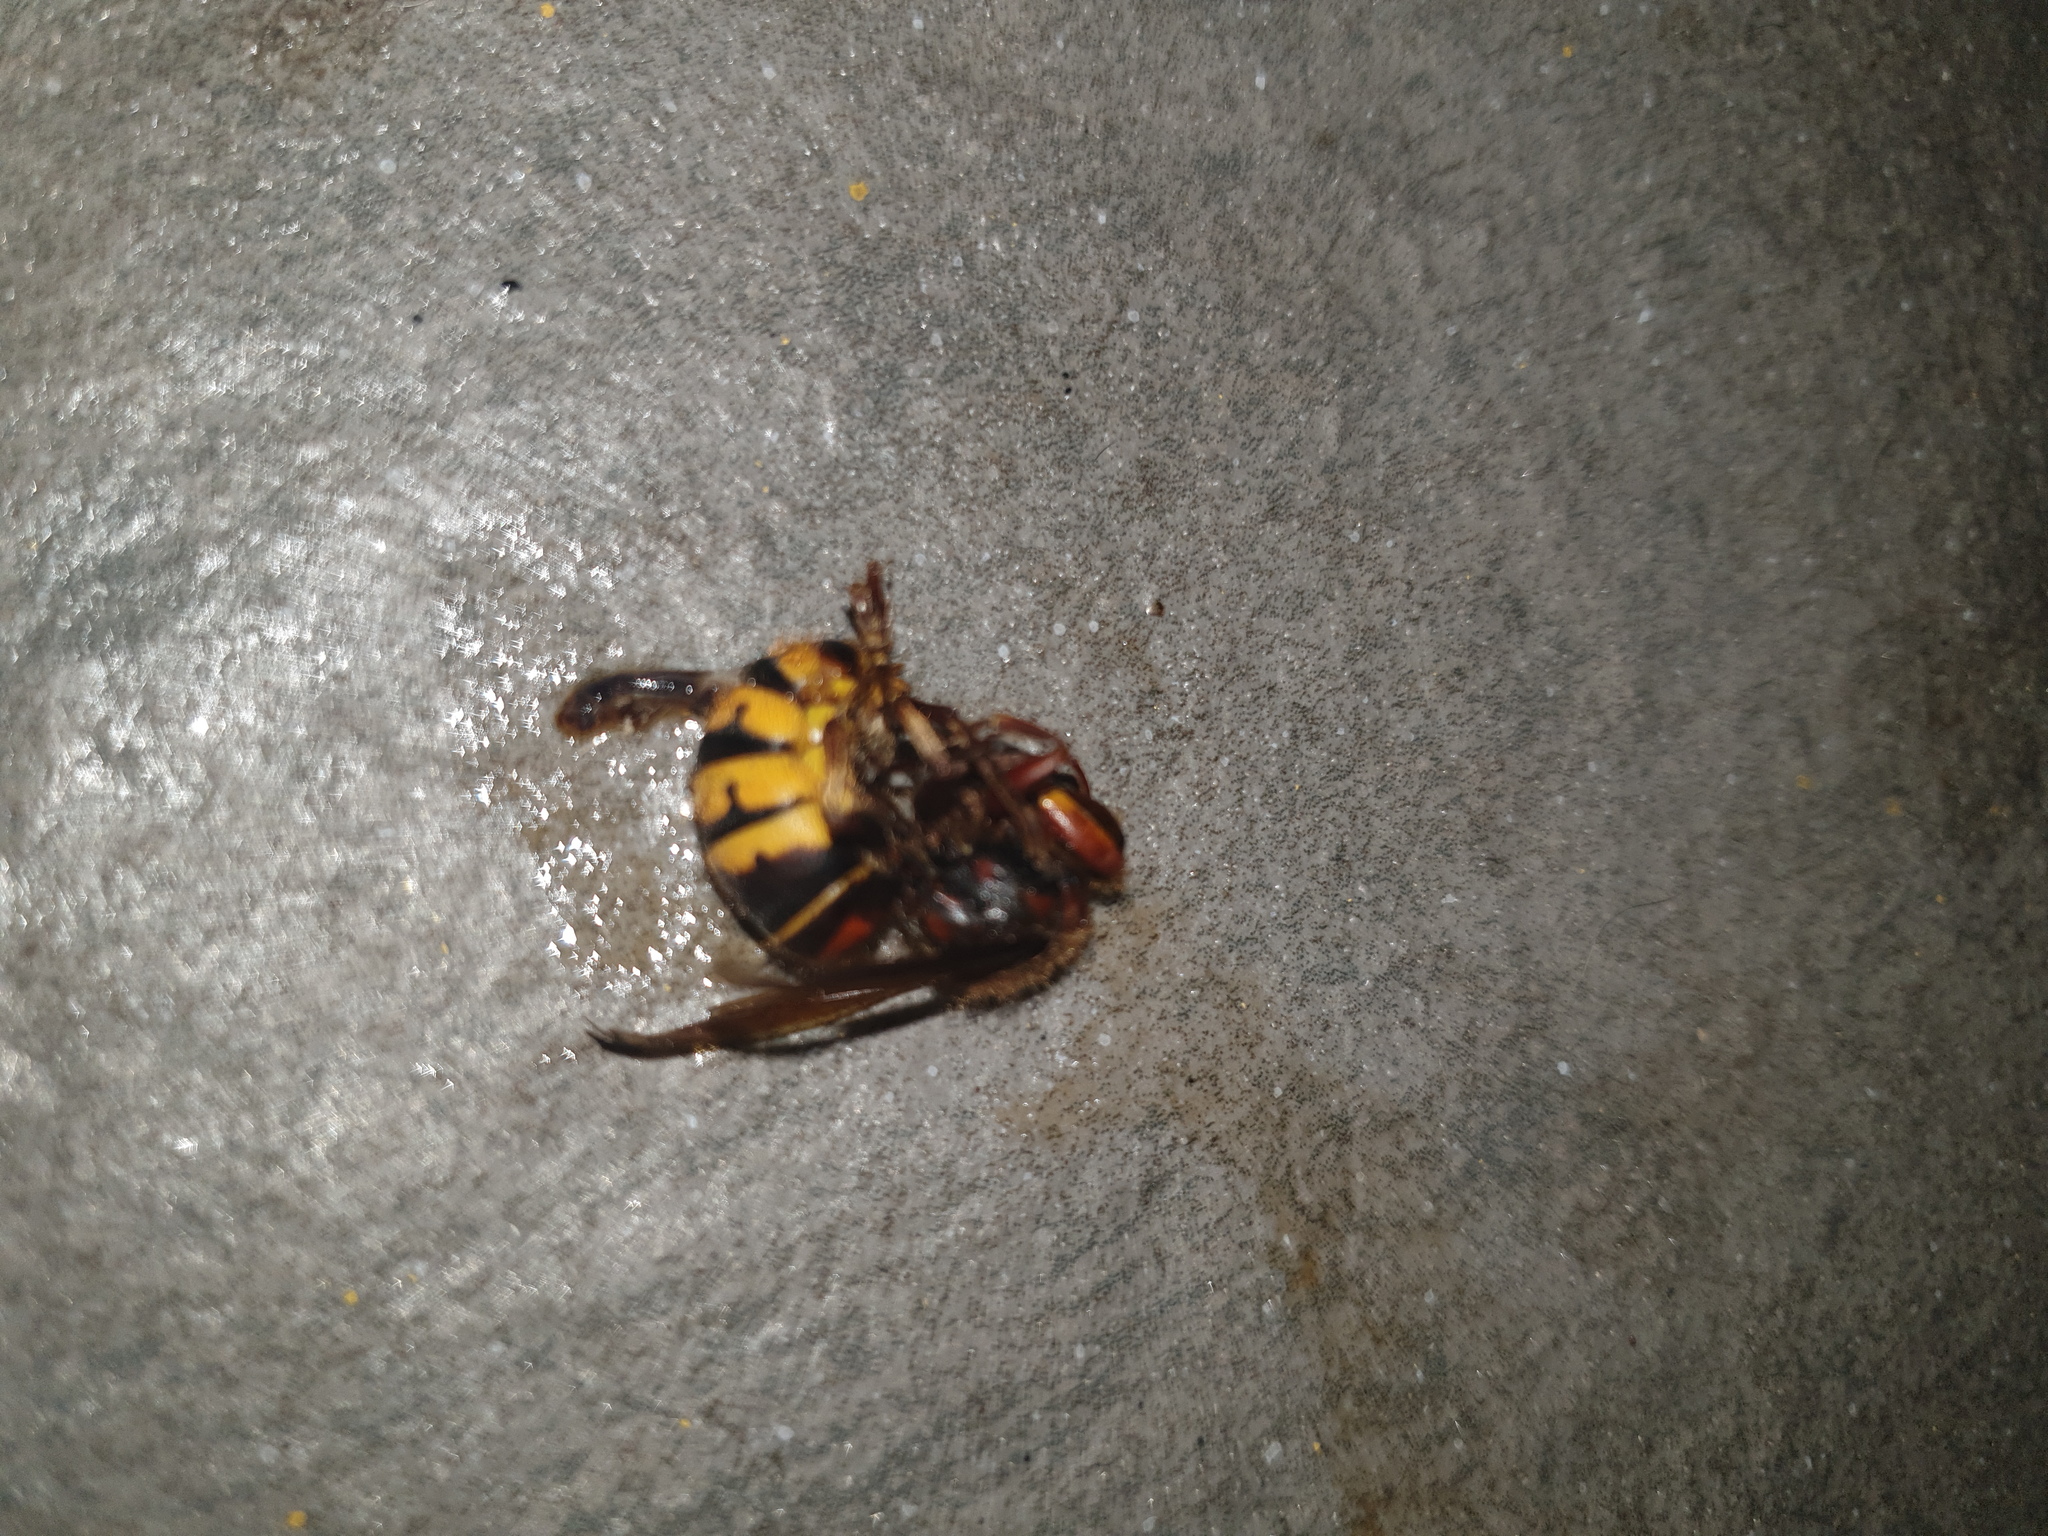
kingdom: Animalia
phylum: Arthropoda
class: Insecta
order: Hymenoptera
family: Vespidae
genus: Vespa
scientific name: Vespa crabro
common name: Hornet
